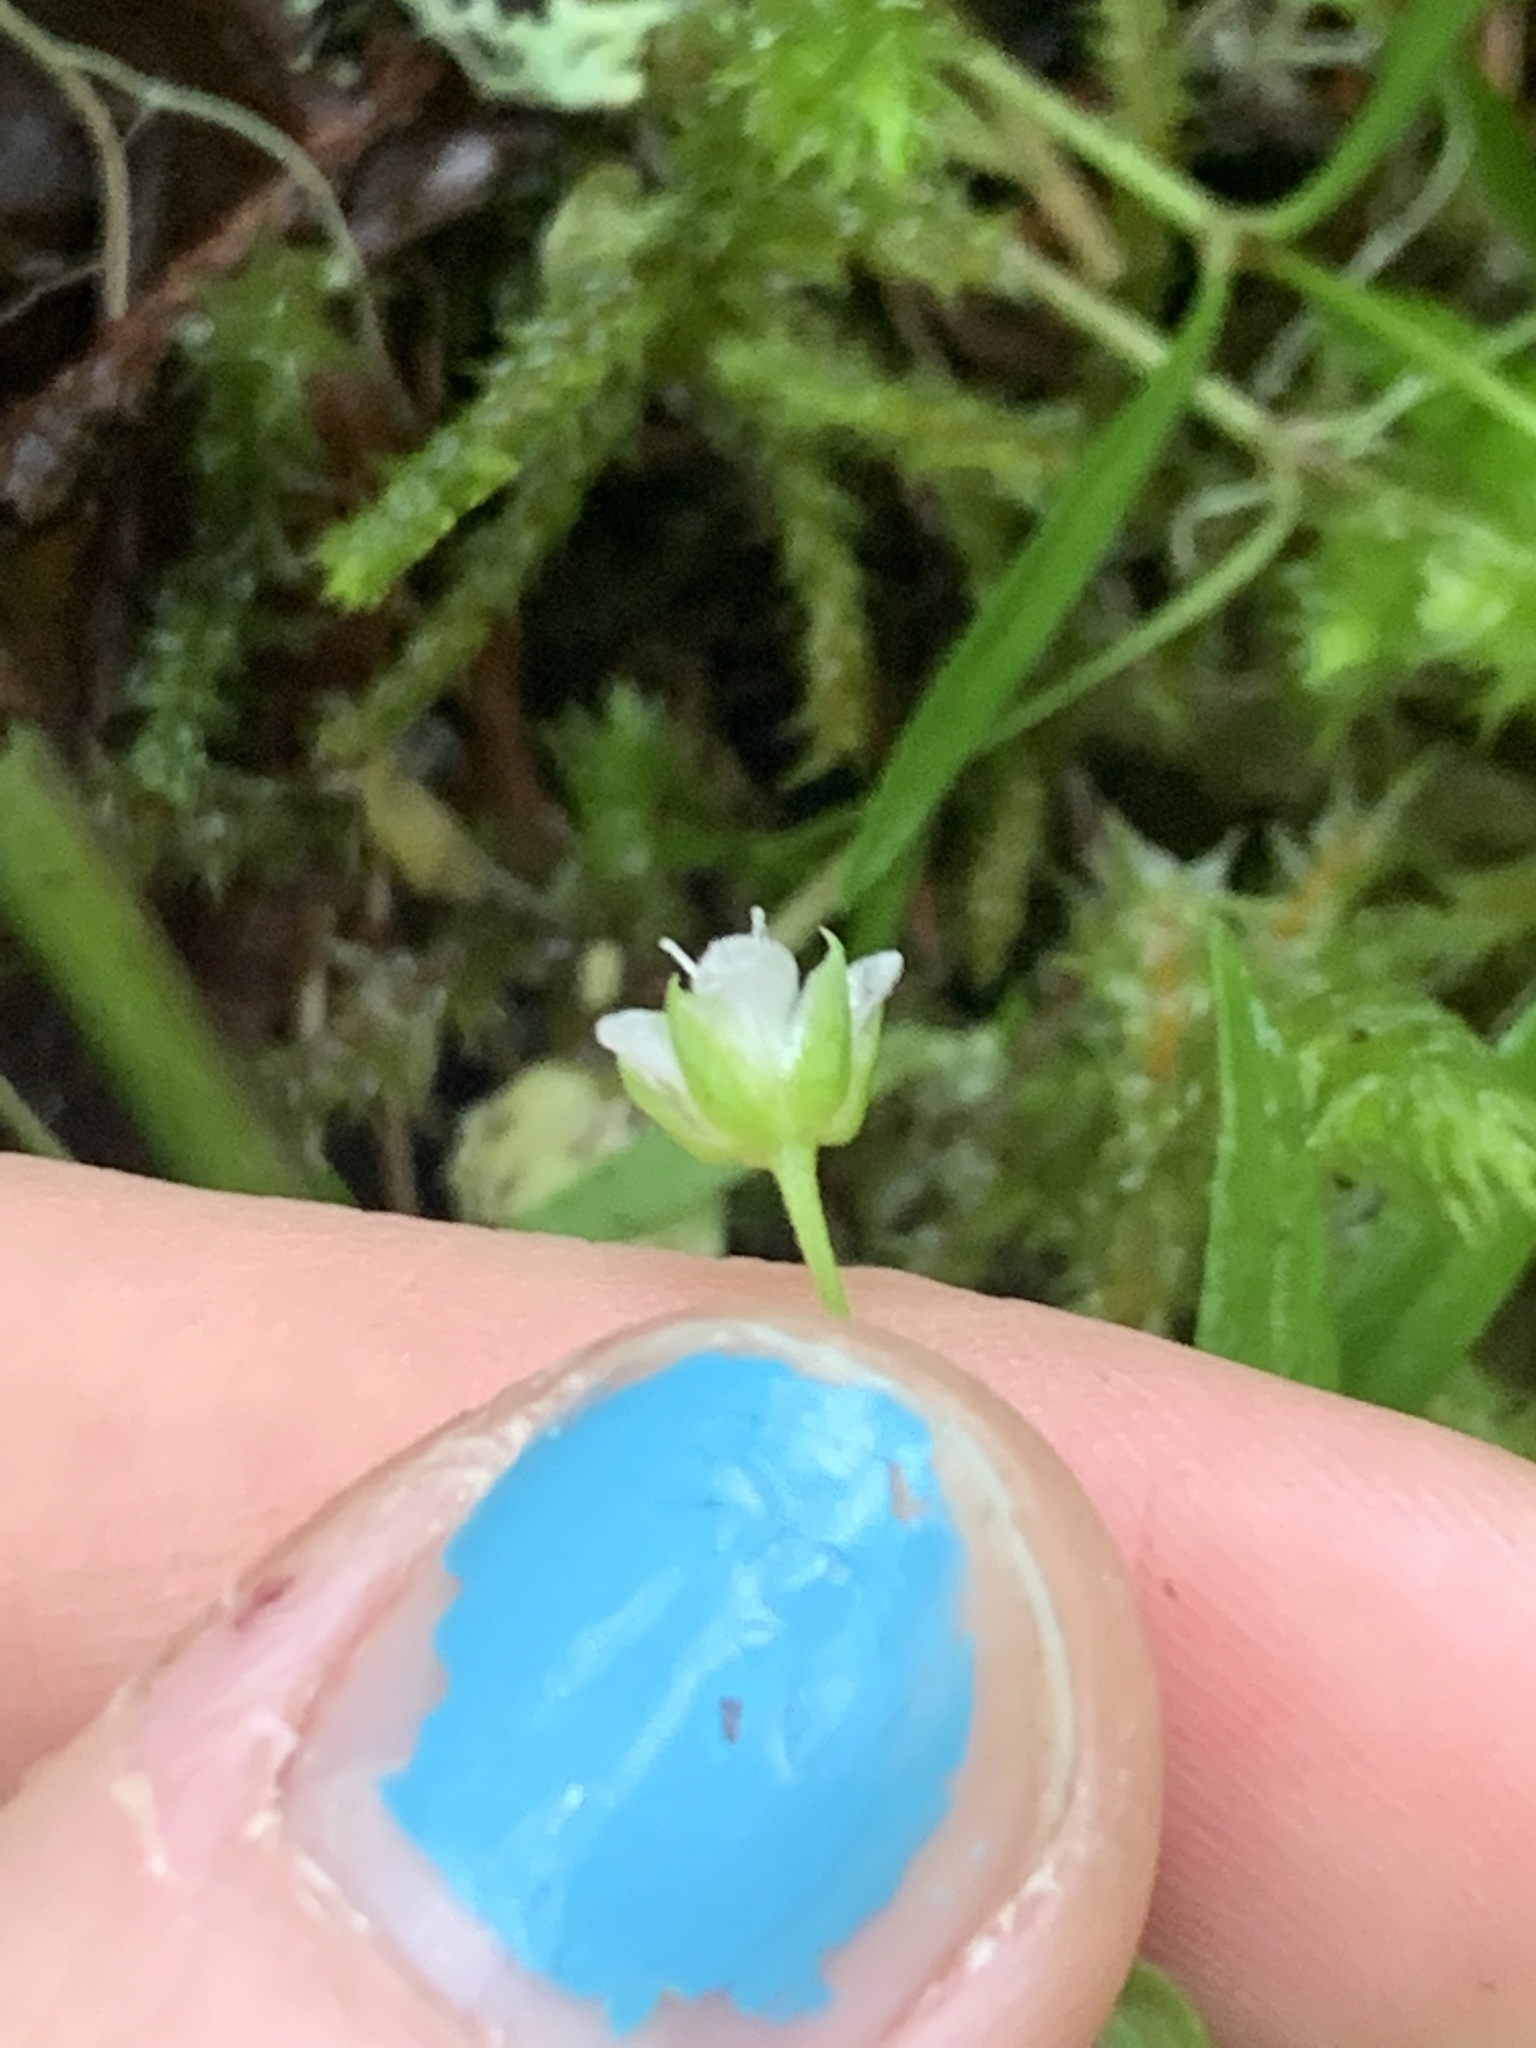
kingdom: Plantae
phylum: Tracheophyta
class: Magnoliopsida
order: Caryophyllales
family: Caryophyllaceae
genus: Moehringia
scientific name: Moehringia macrophylla
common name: Big-leaf sandwort
